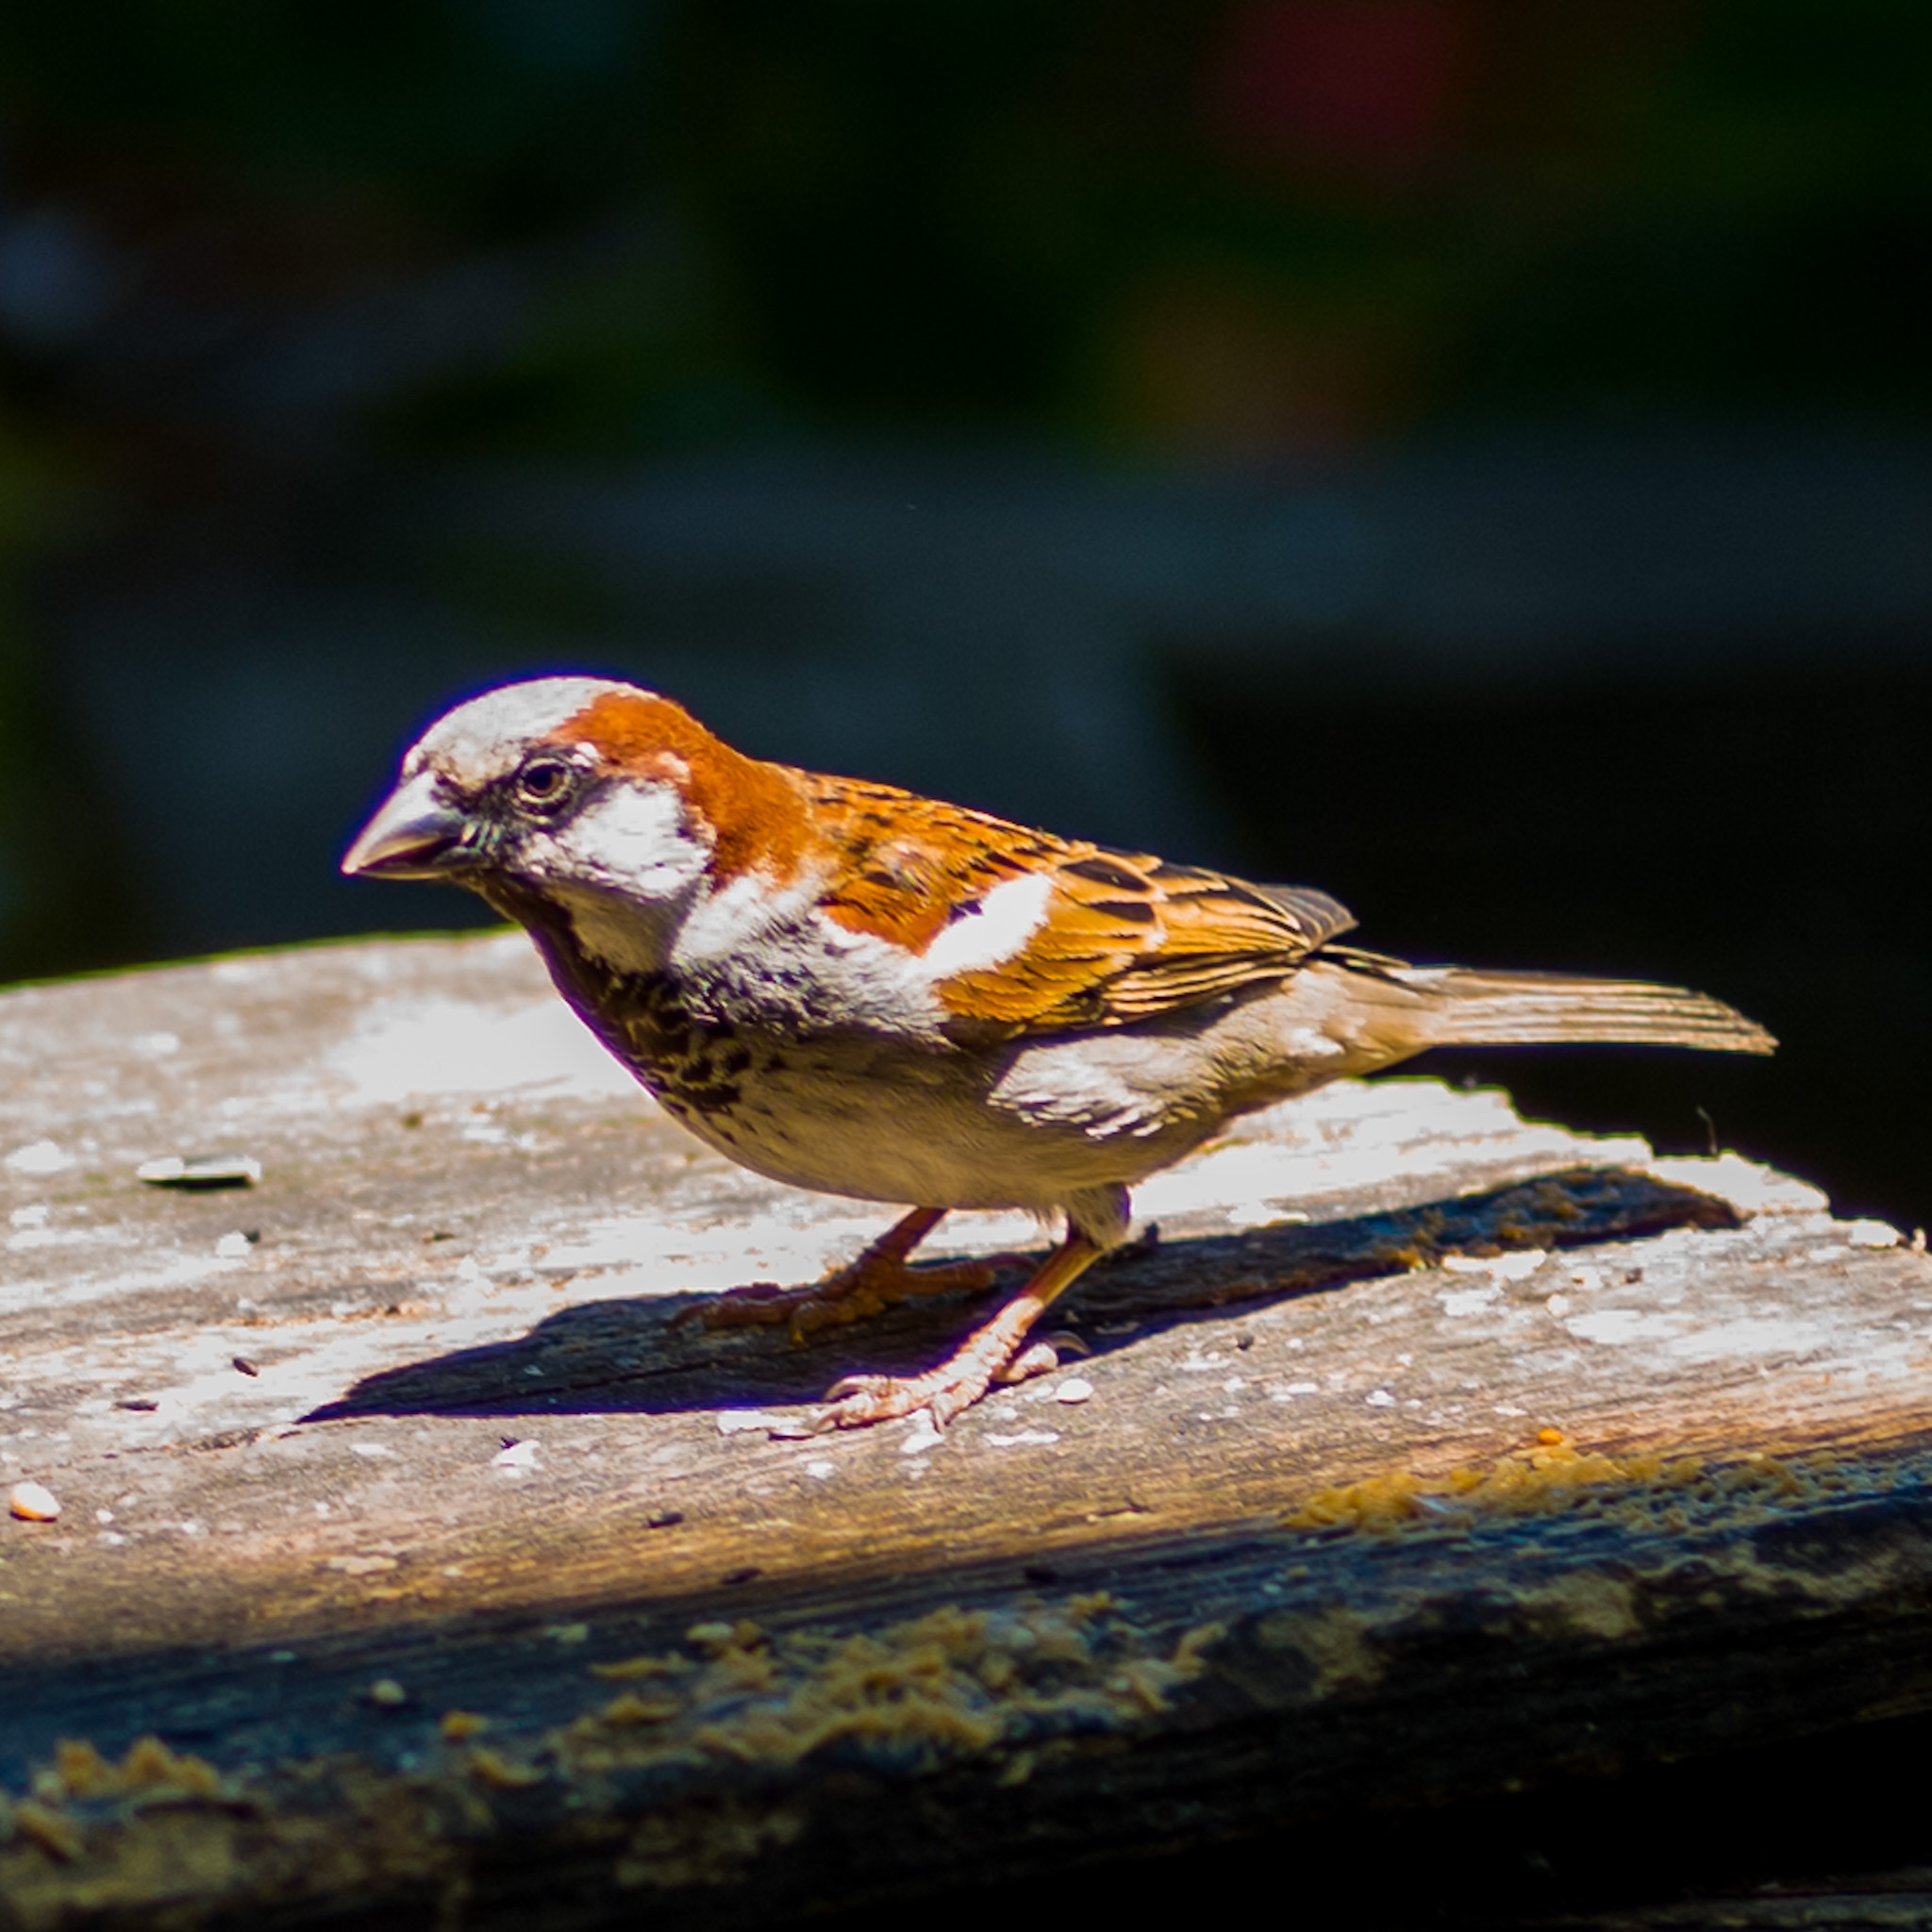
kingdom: Animalia
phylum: Chordata
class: Aves
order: Passeriformes
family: Passeridae
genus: Passer
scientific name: Passer domesticus
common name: House sparrow
